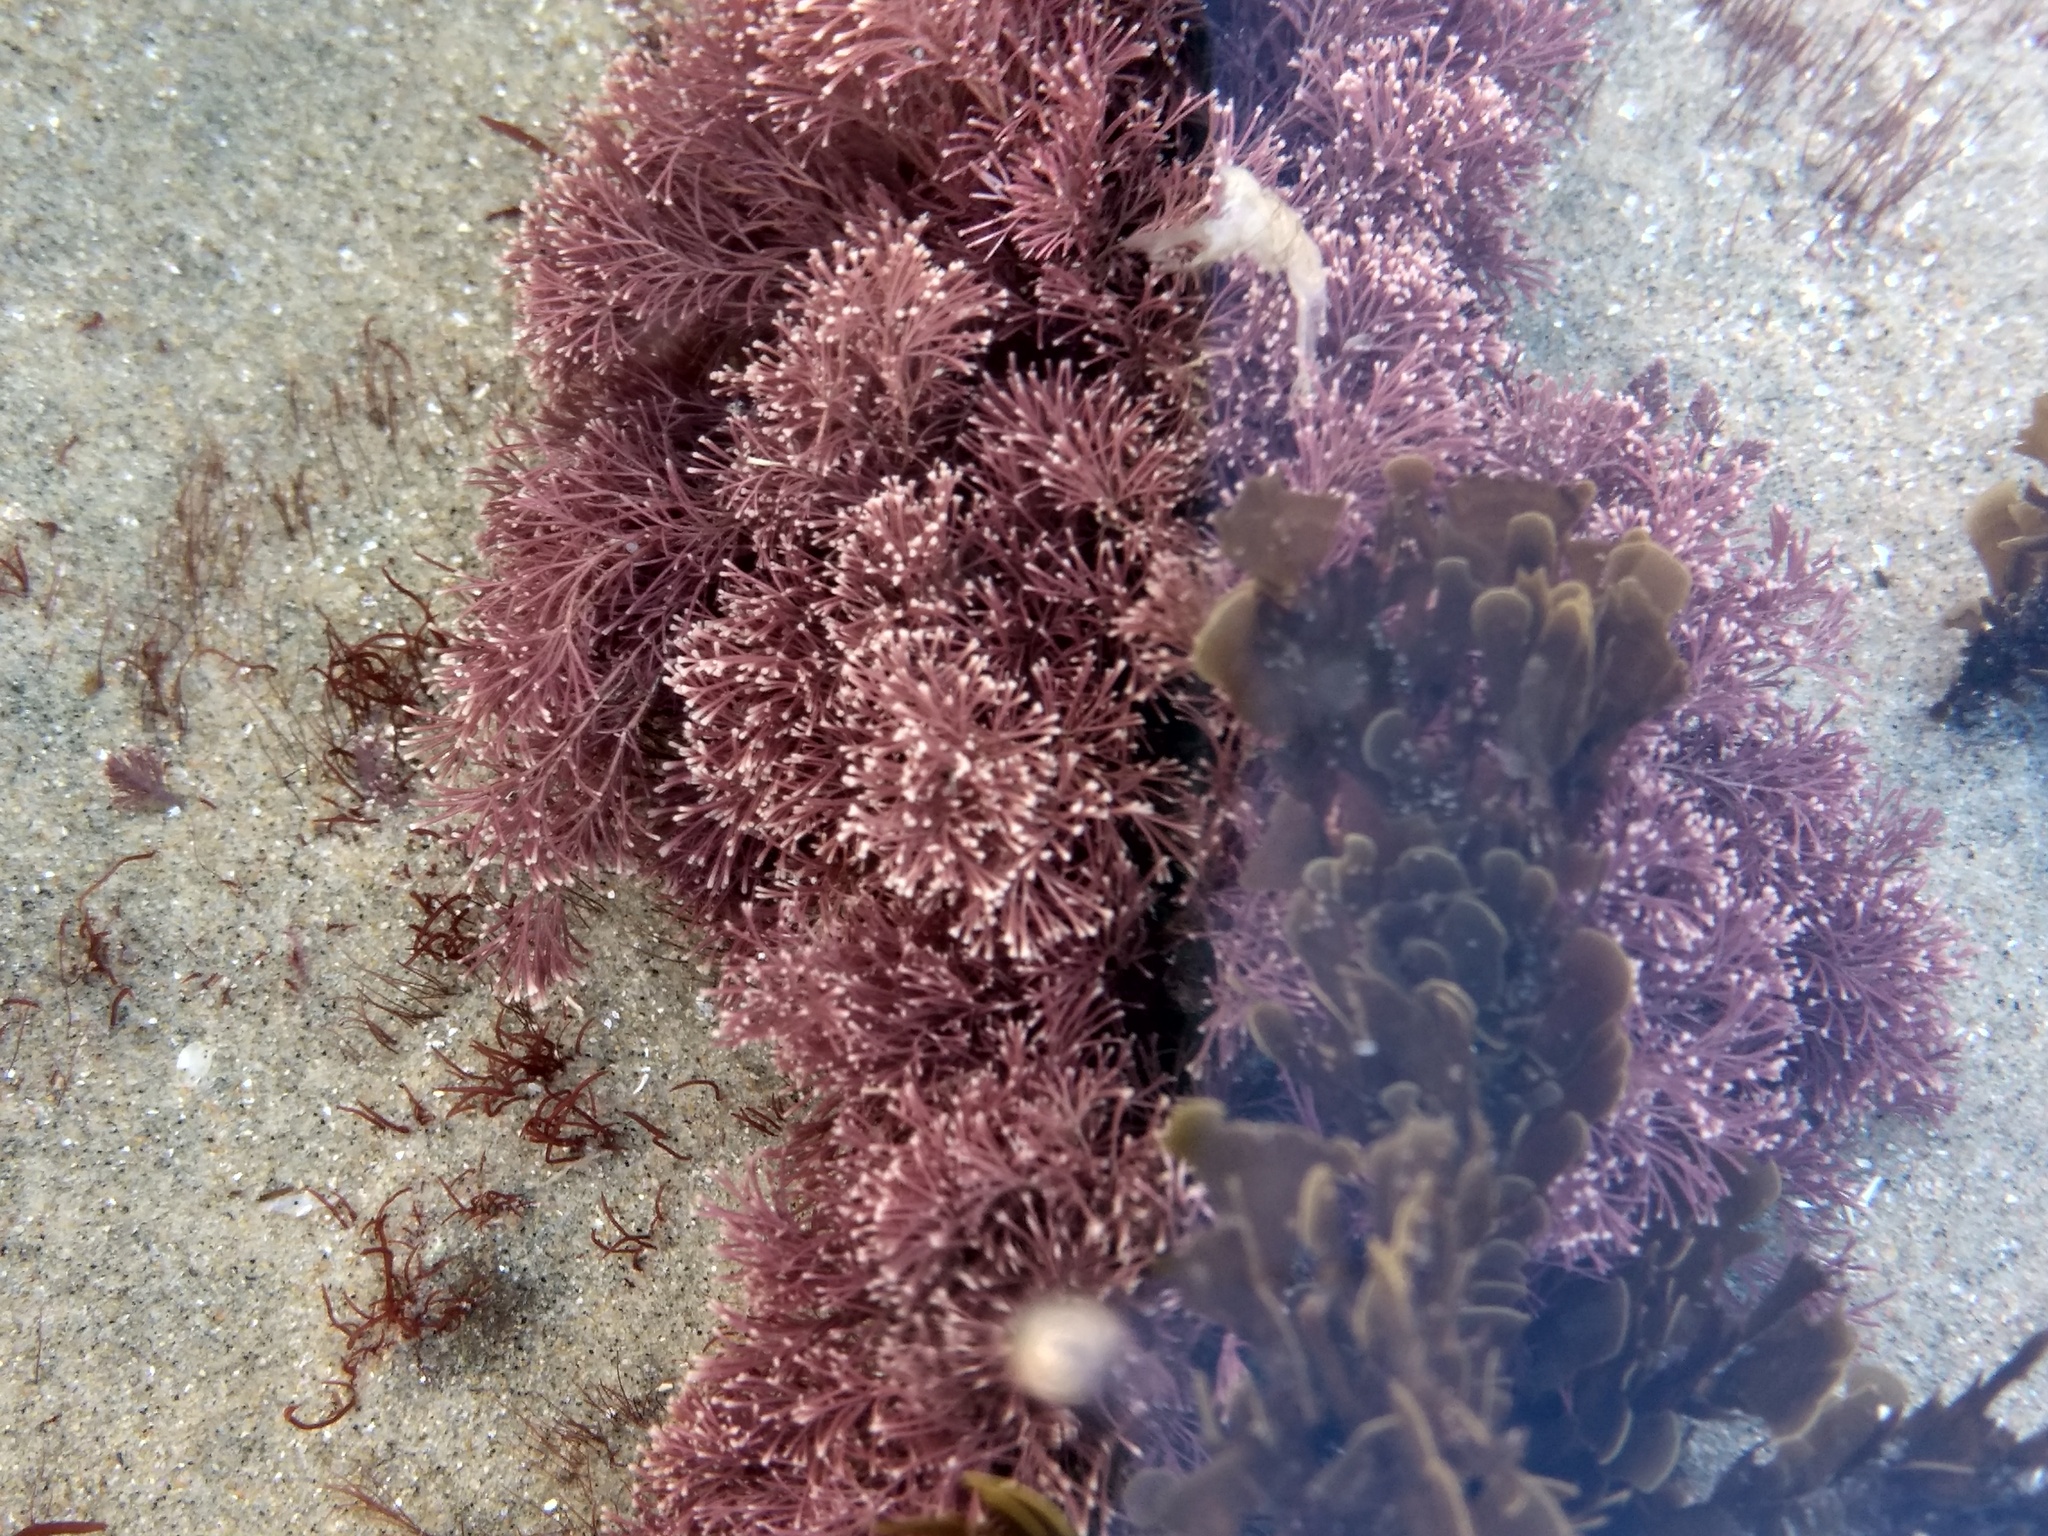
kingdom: Chromista
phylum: Ochrophyta
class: Phaeophyceae
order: Dictyotales
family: Dictyotaceae
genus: Zonaria
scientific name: Zonaria farlowii
